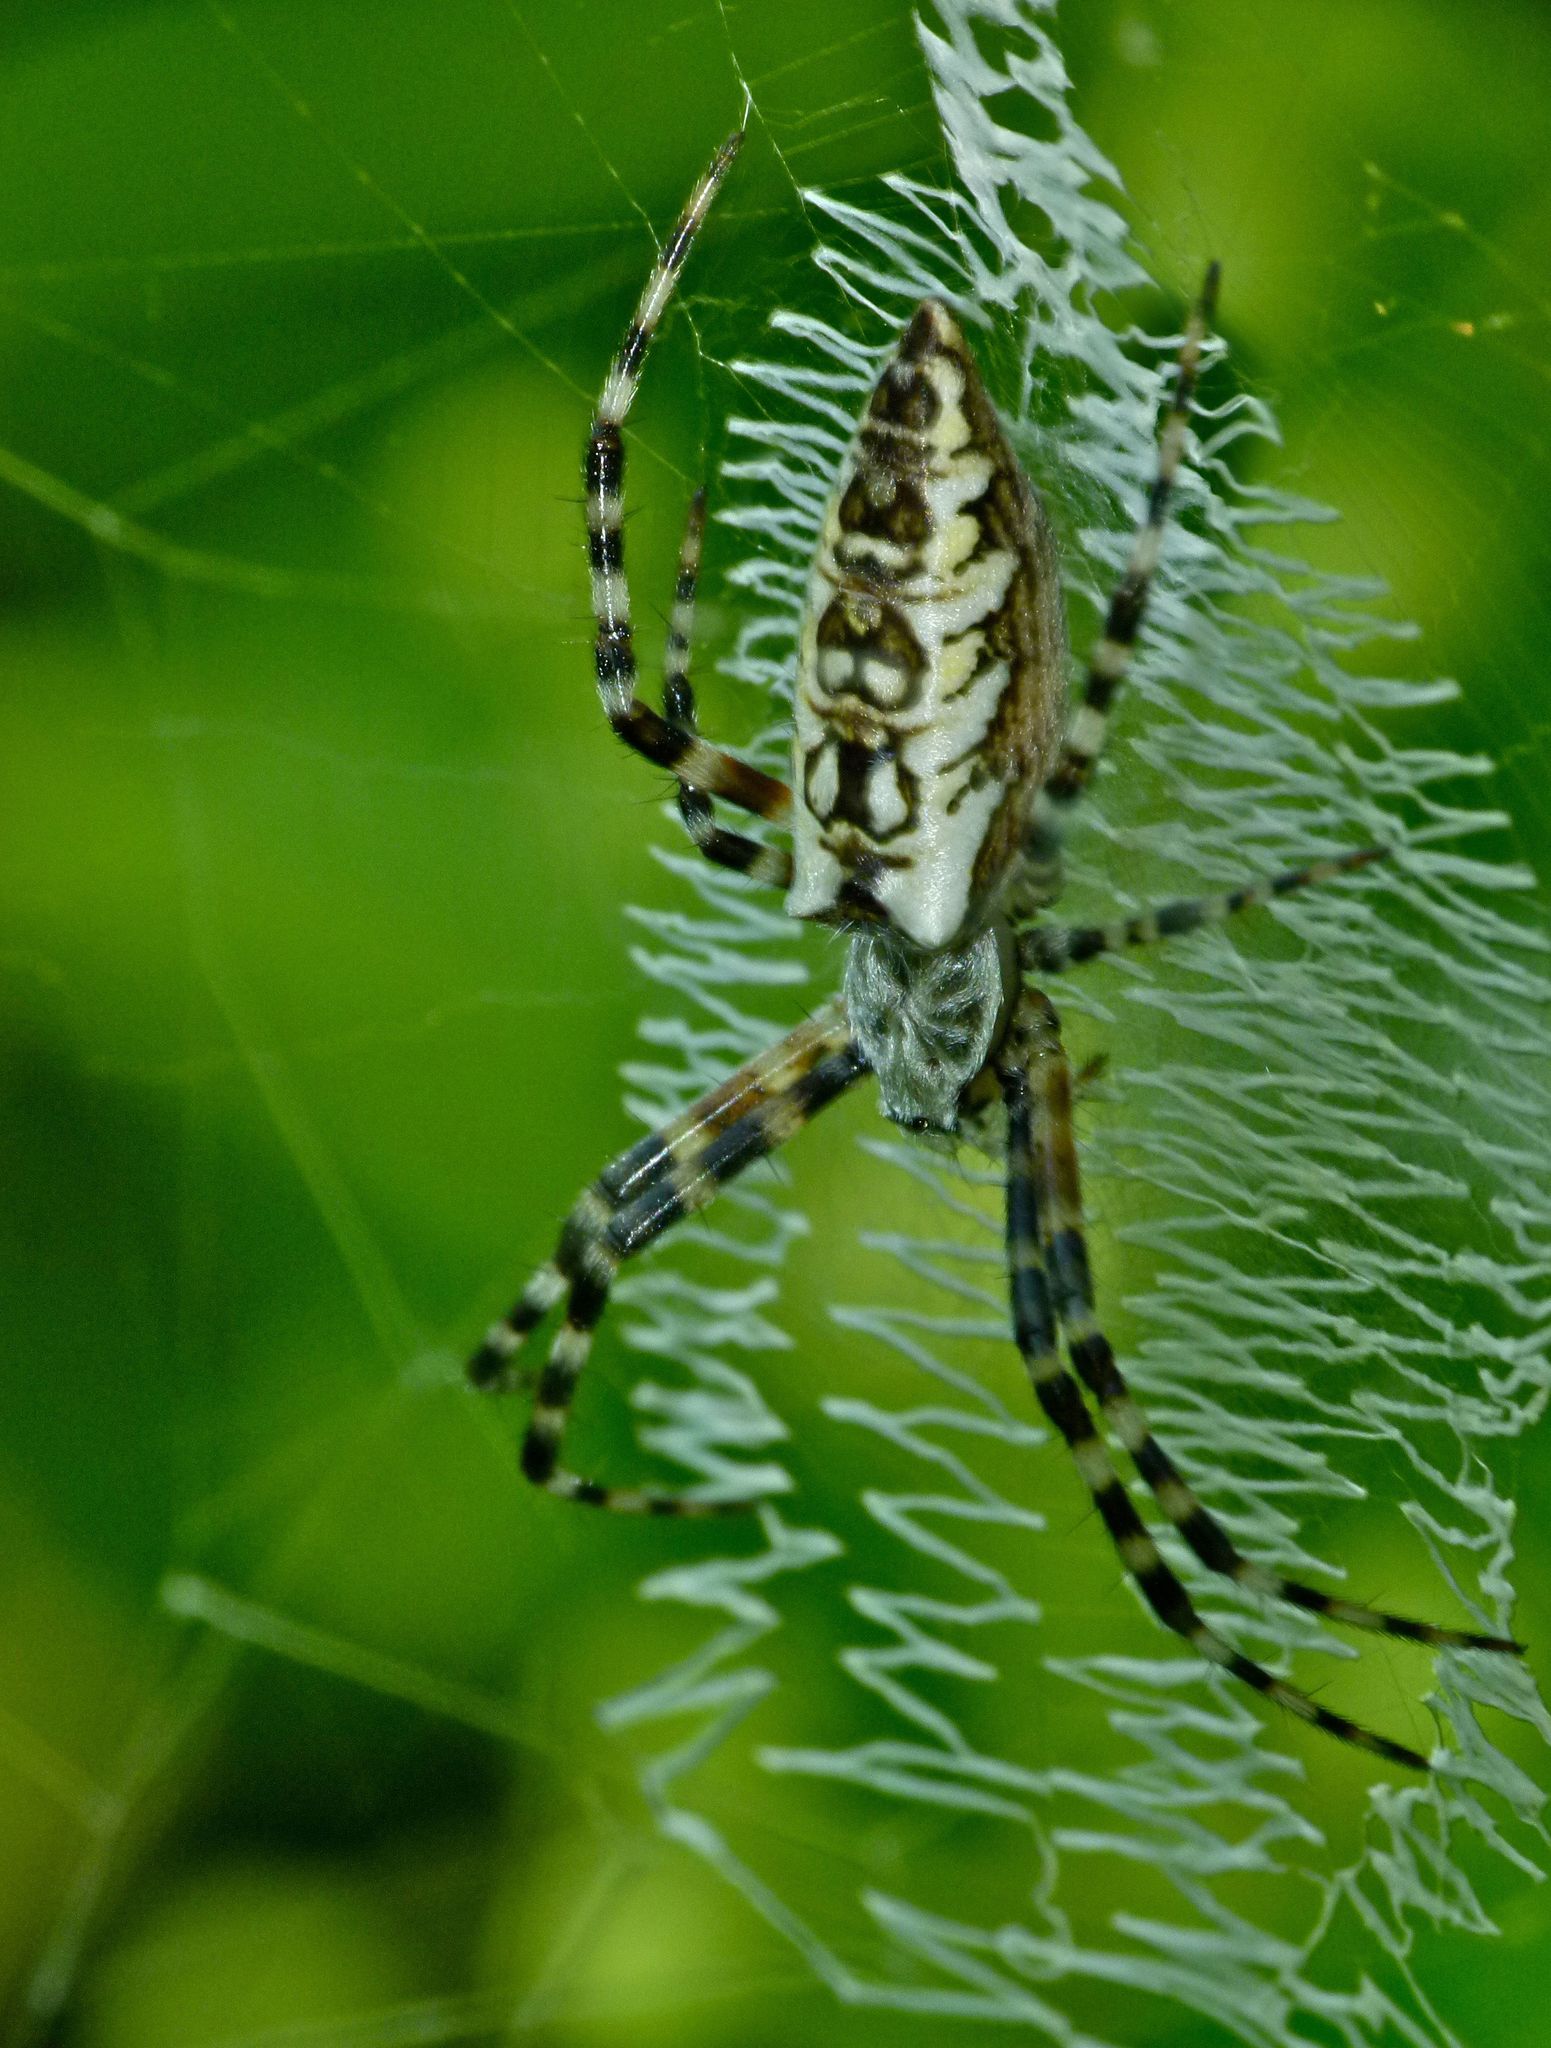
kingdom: Animalia
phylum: Arthropoda
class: Arachnida
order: Araneae
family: Araneidae
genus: Argiope
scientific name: Argiope aurantia
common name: Orb weavers
